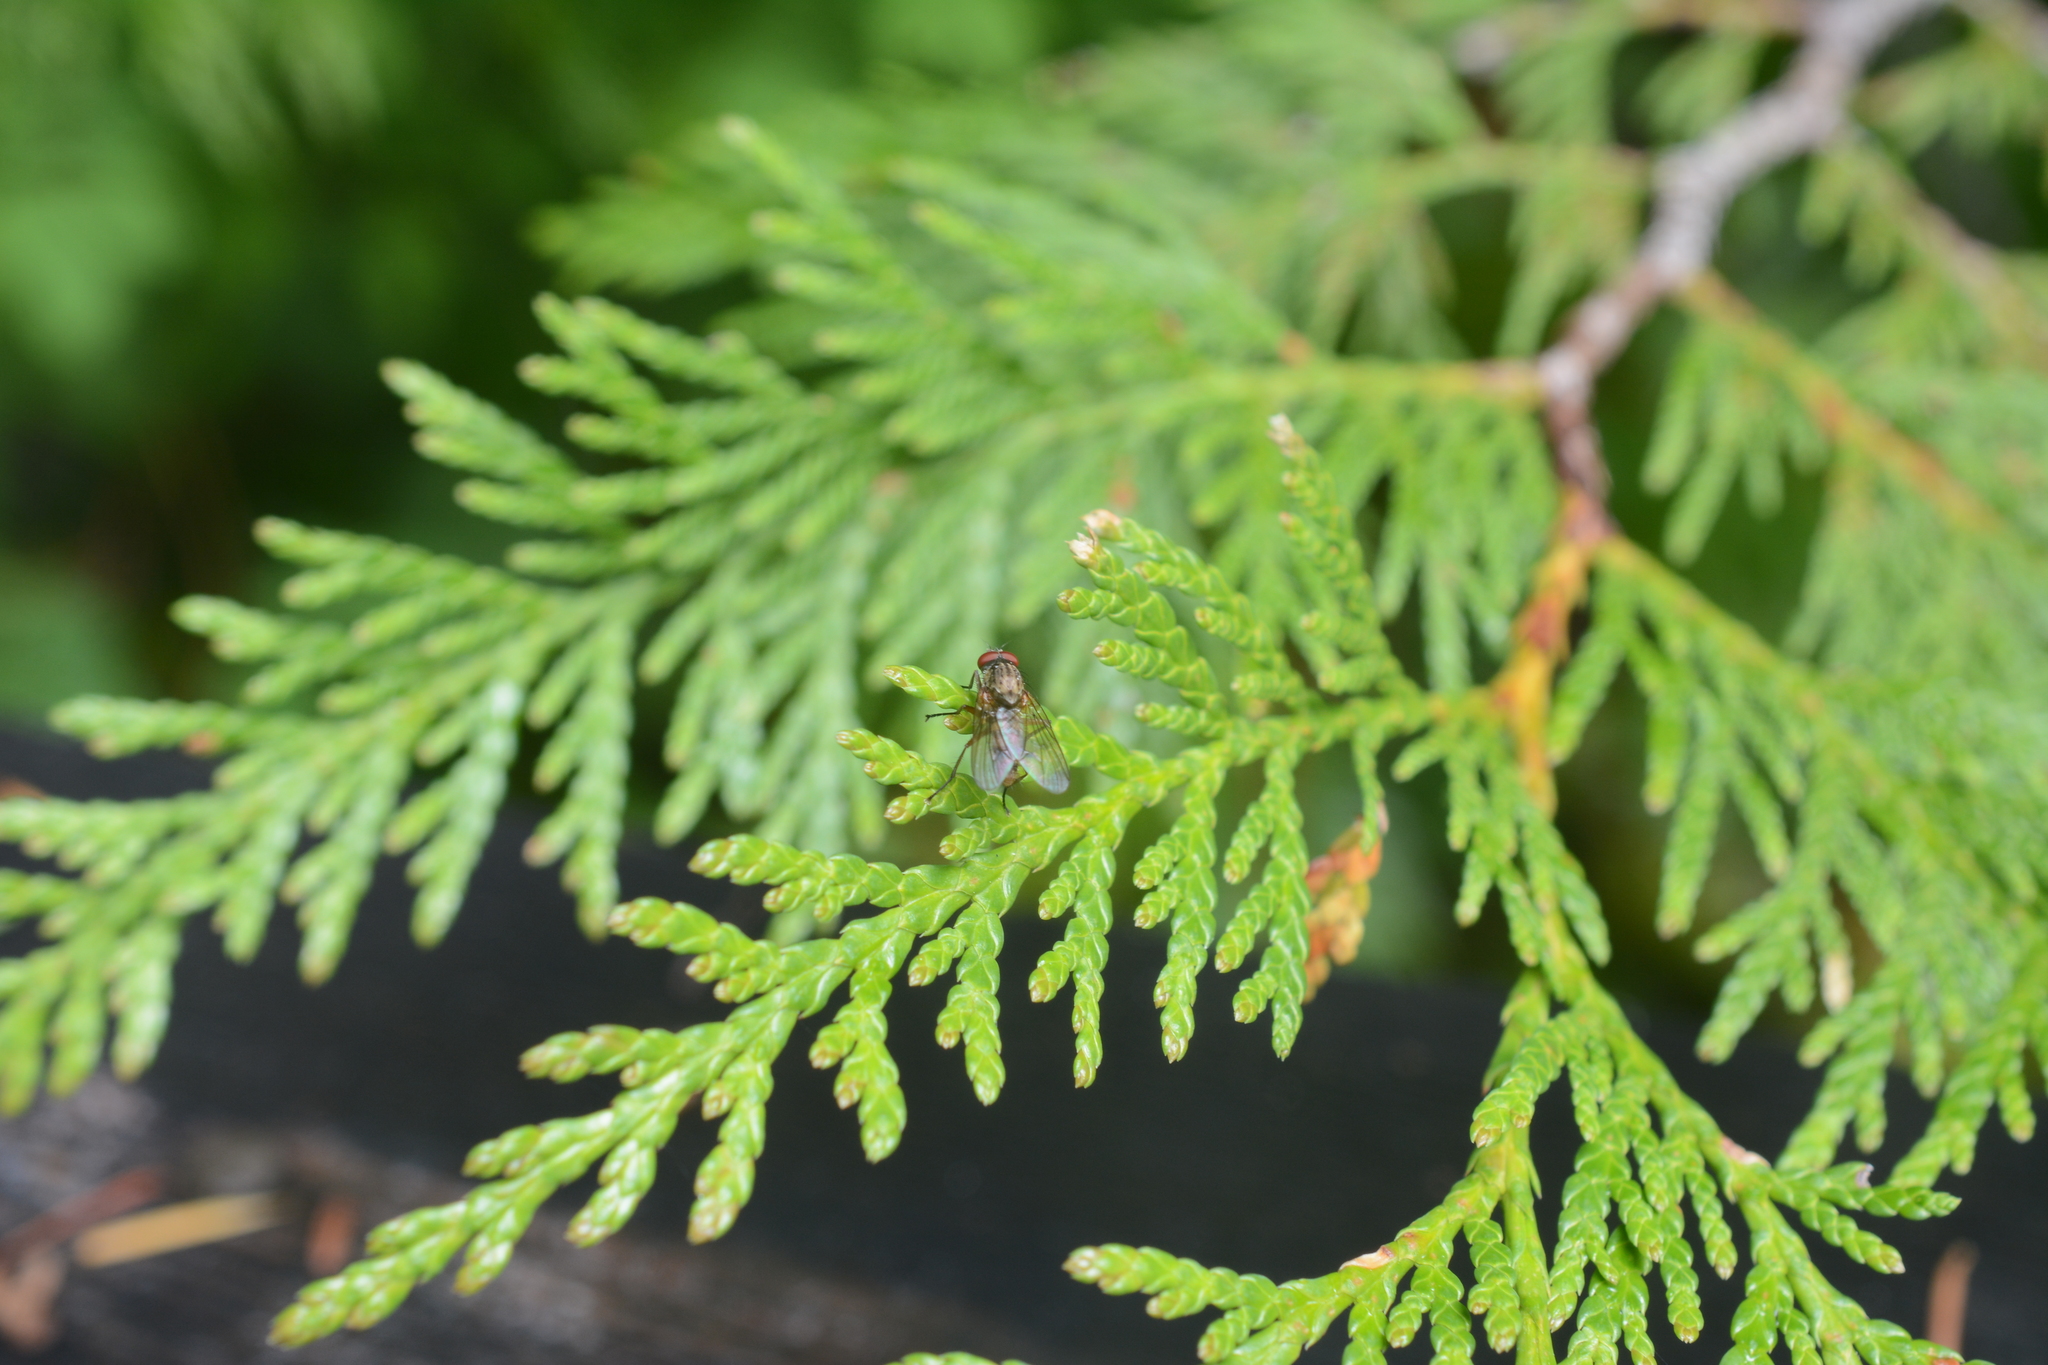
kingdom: Plantae
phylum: Tracheophyta
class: Pinopsida
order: Pinales
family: Cupressaceae
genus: Thuja
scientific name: Thuja plicata
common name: Western red-cedar
